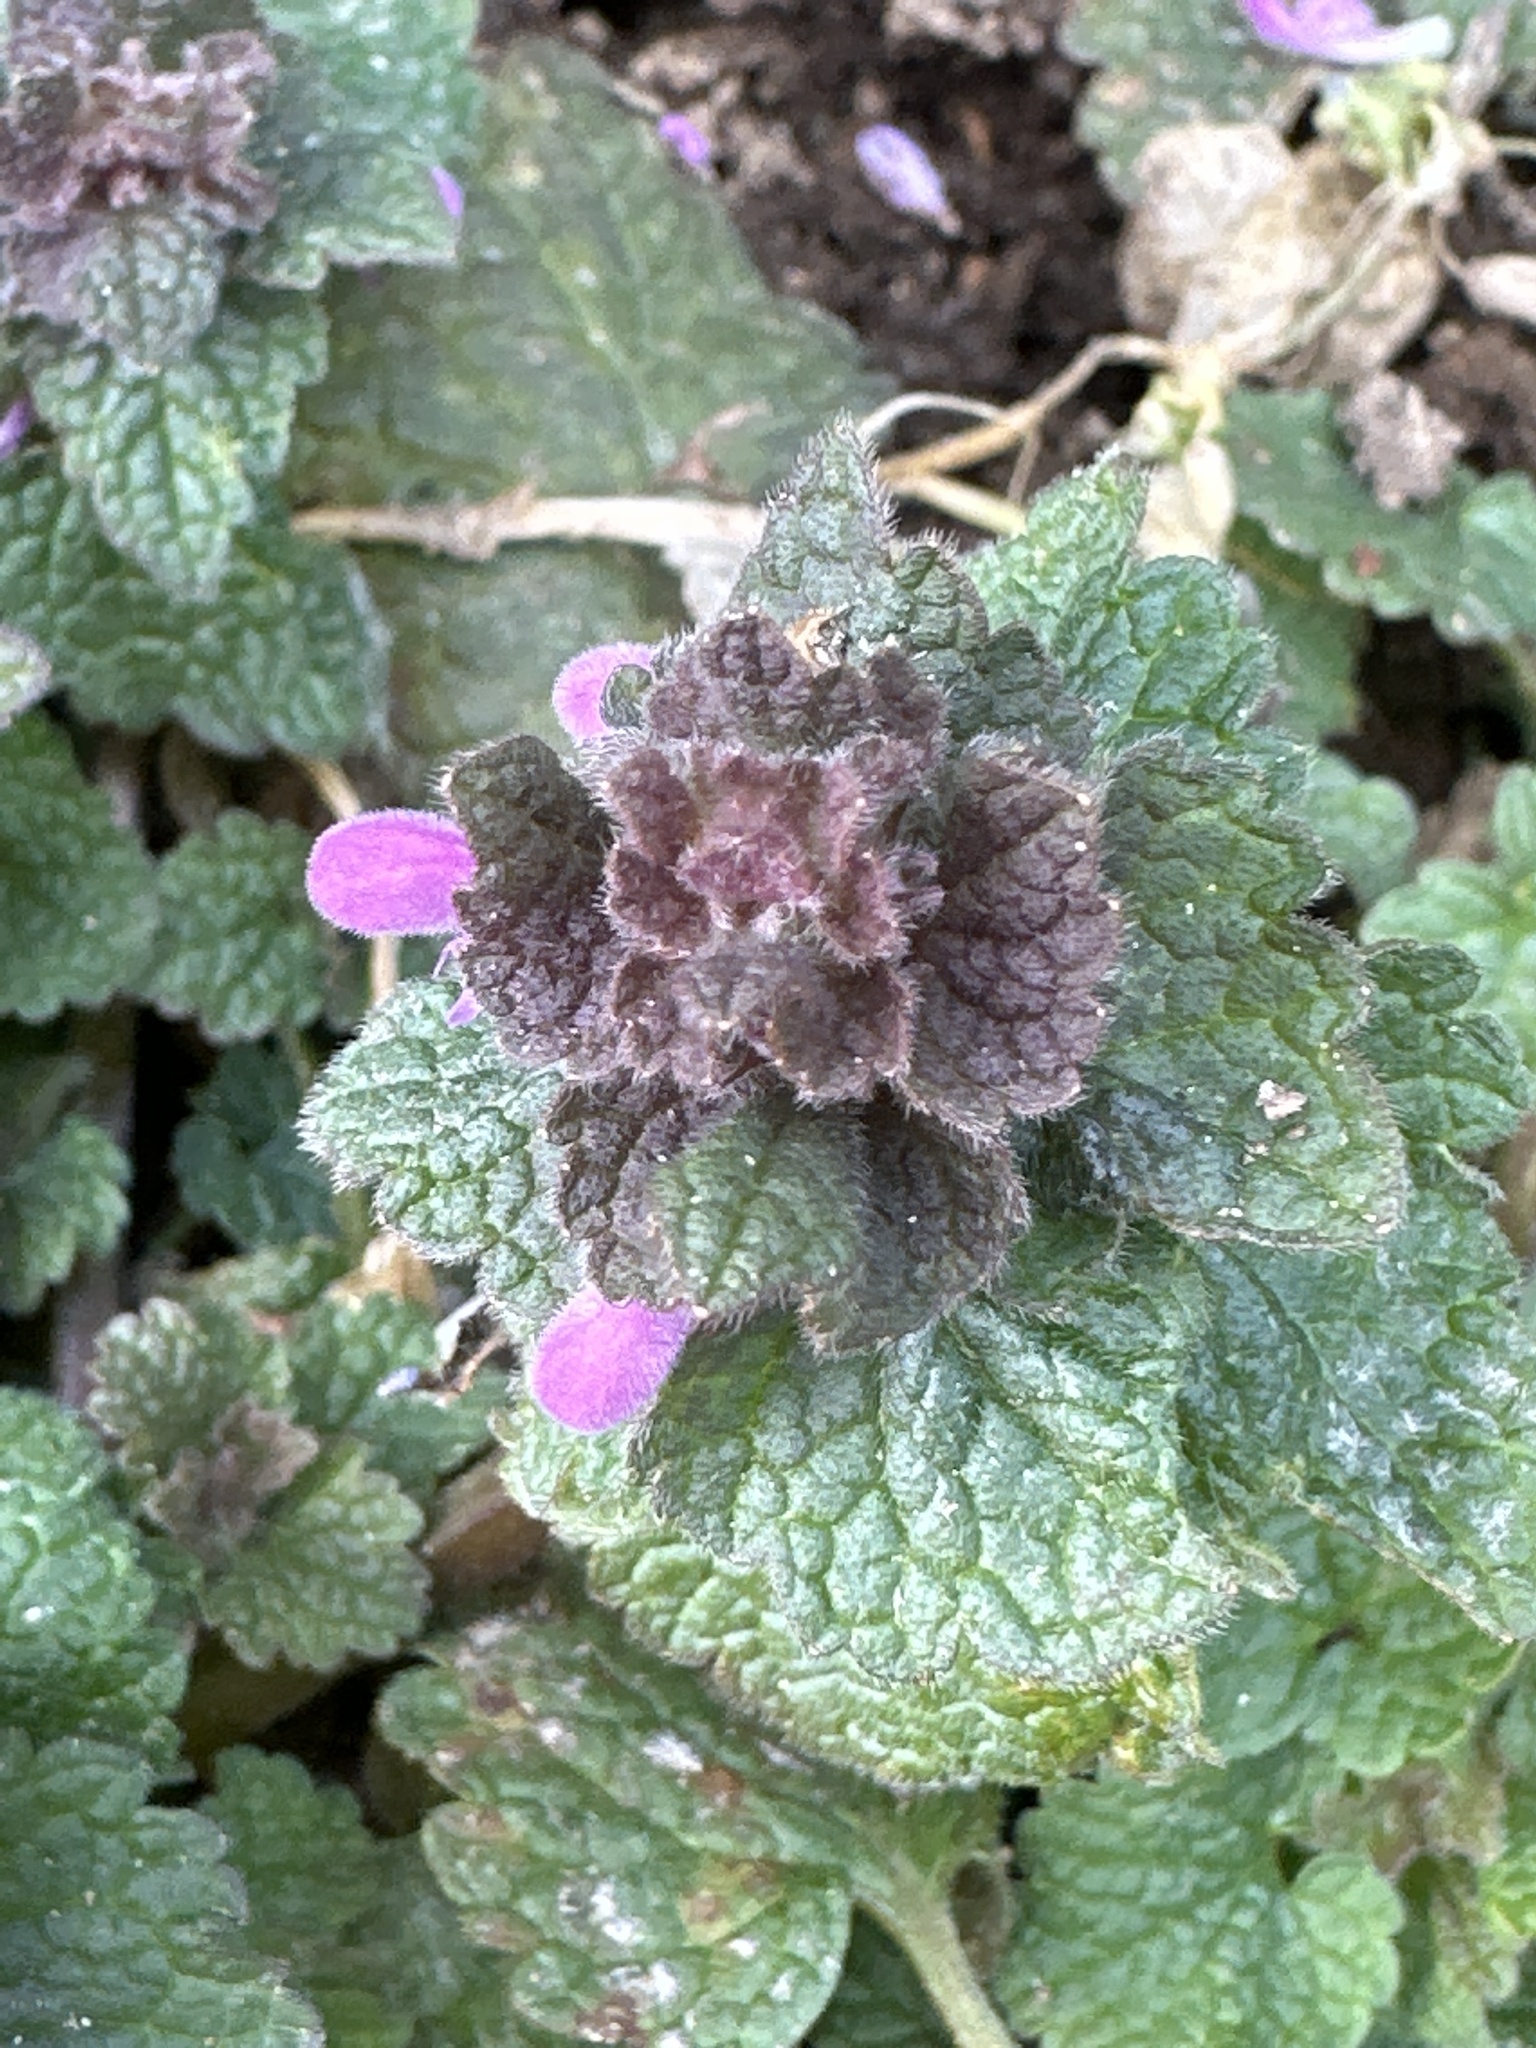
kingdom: Plantae
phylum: Tracheophyta
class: Magnoliopsida
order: Lamiales
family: Lamiaceae
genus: Lamium
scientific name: Lamium purpureum
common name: Red dead-nettle
